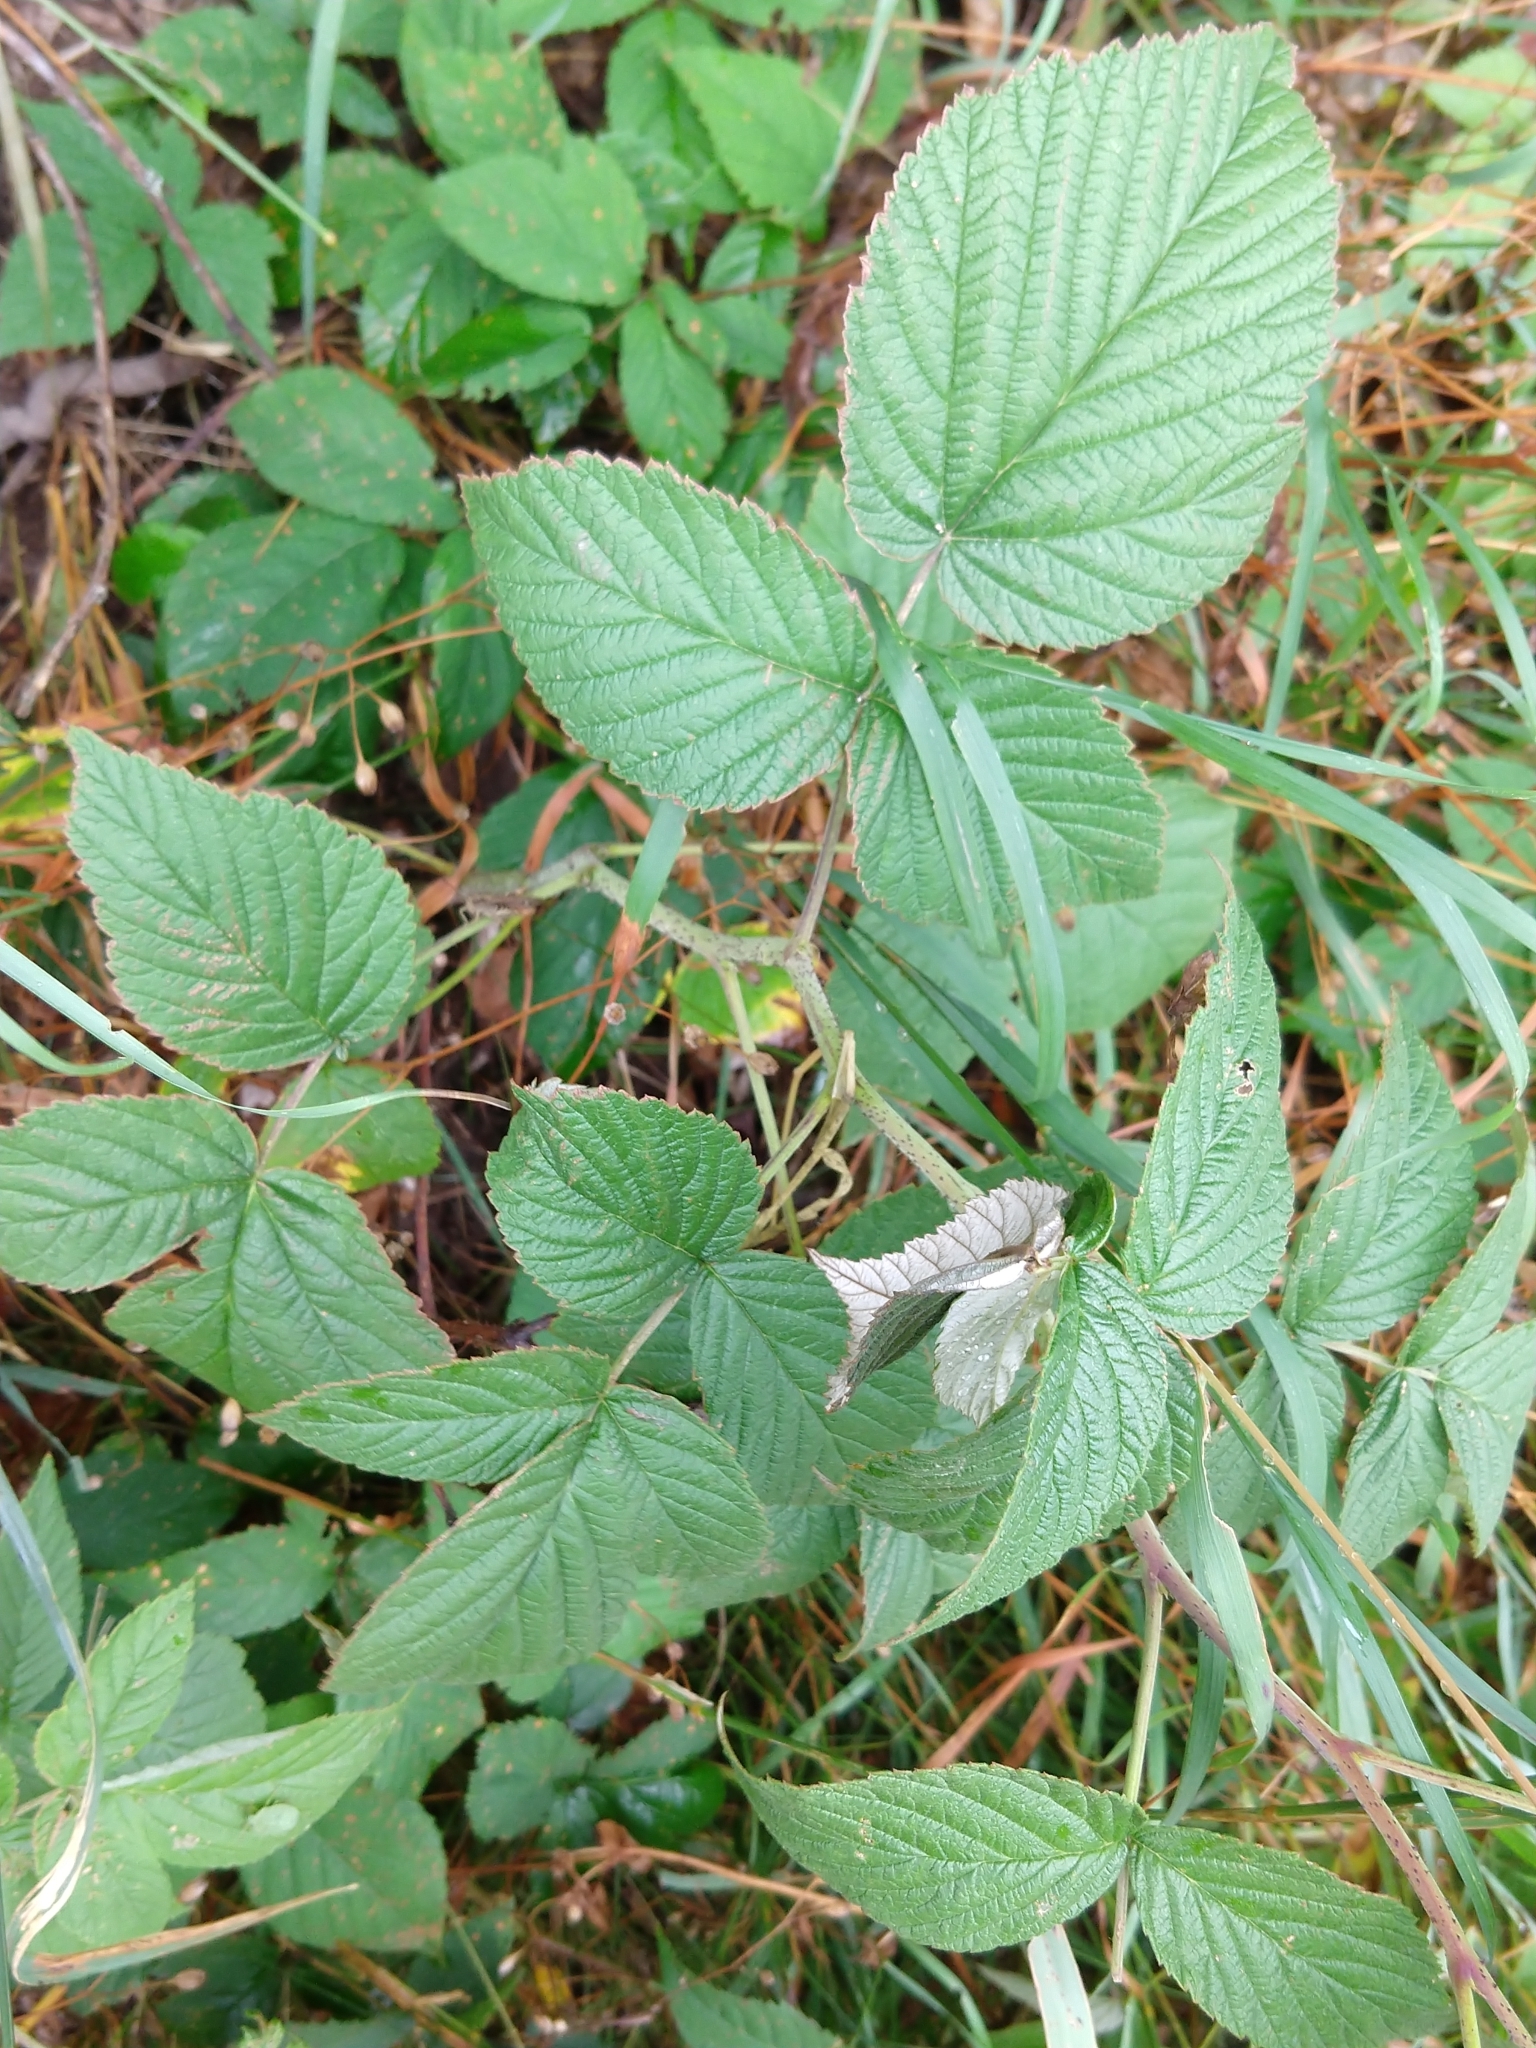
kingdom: Plantae
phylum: Tracheophyta
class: Magnoliopsida
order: Rosales
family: Rosaceae
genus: Rubus
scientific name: Rubus idaeus
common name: Raspberry
